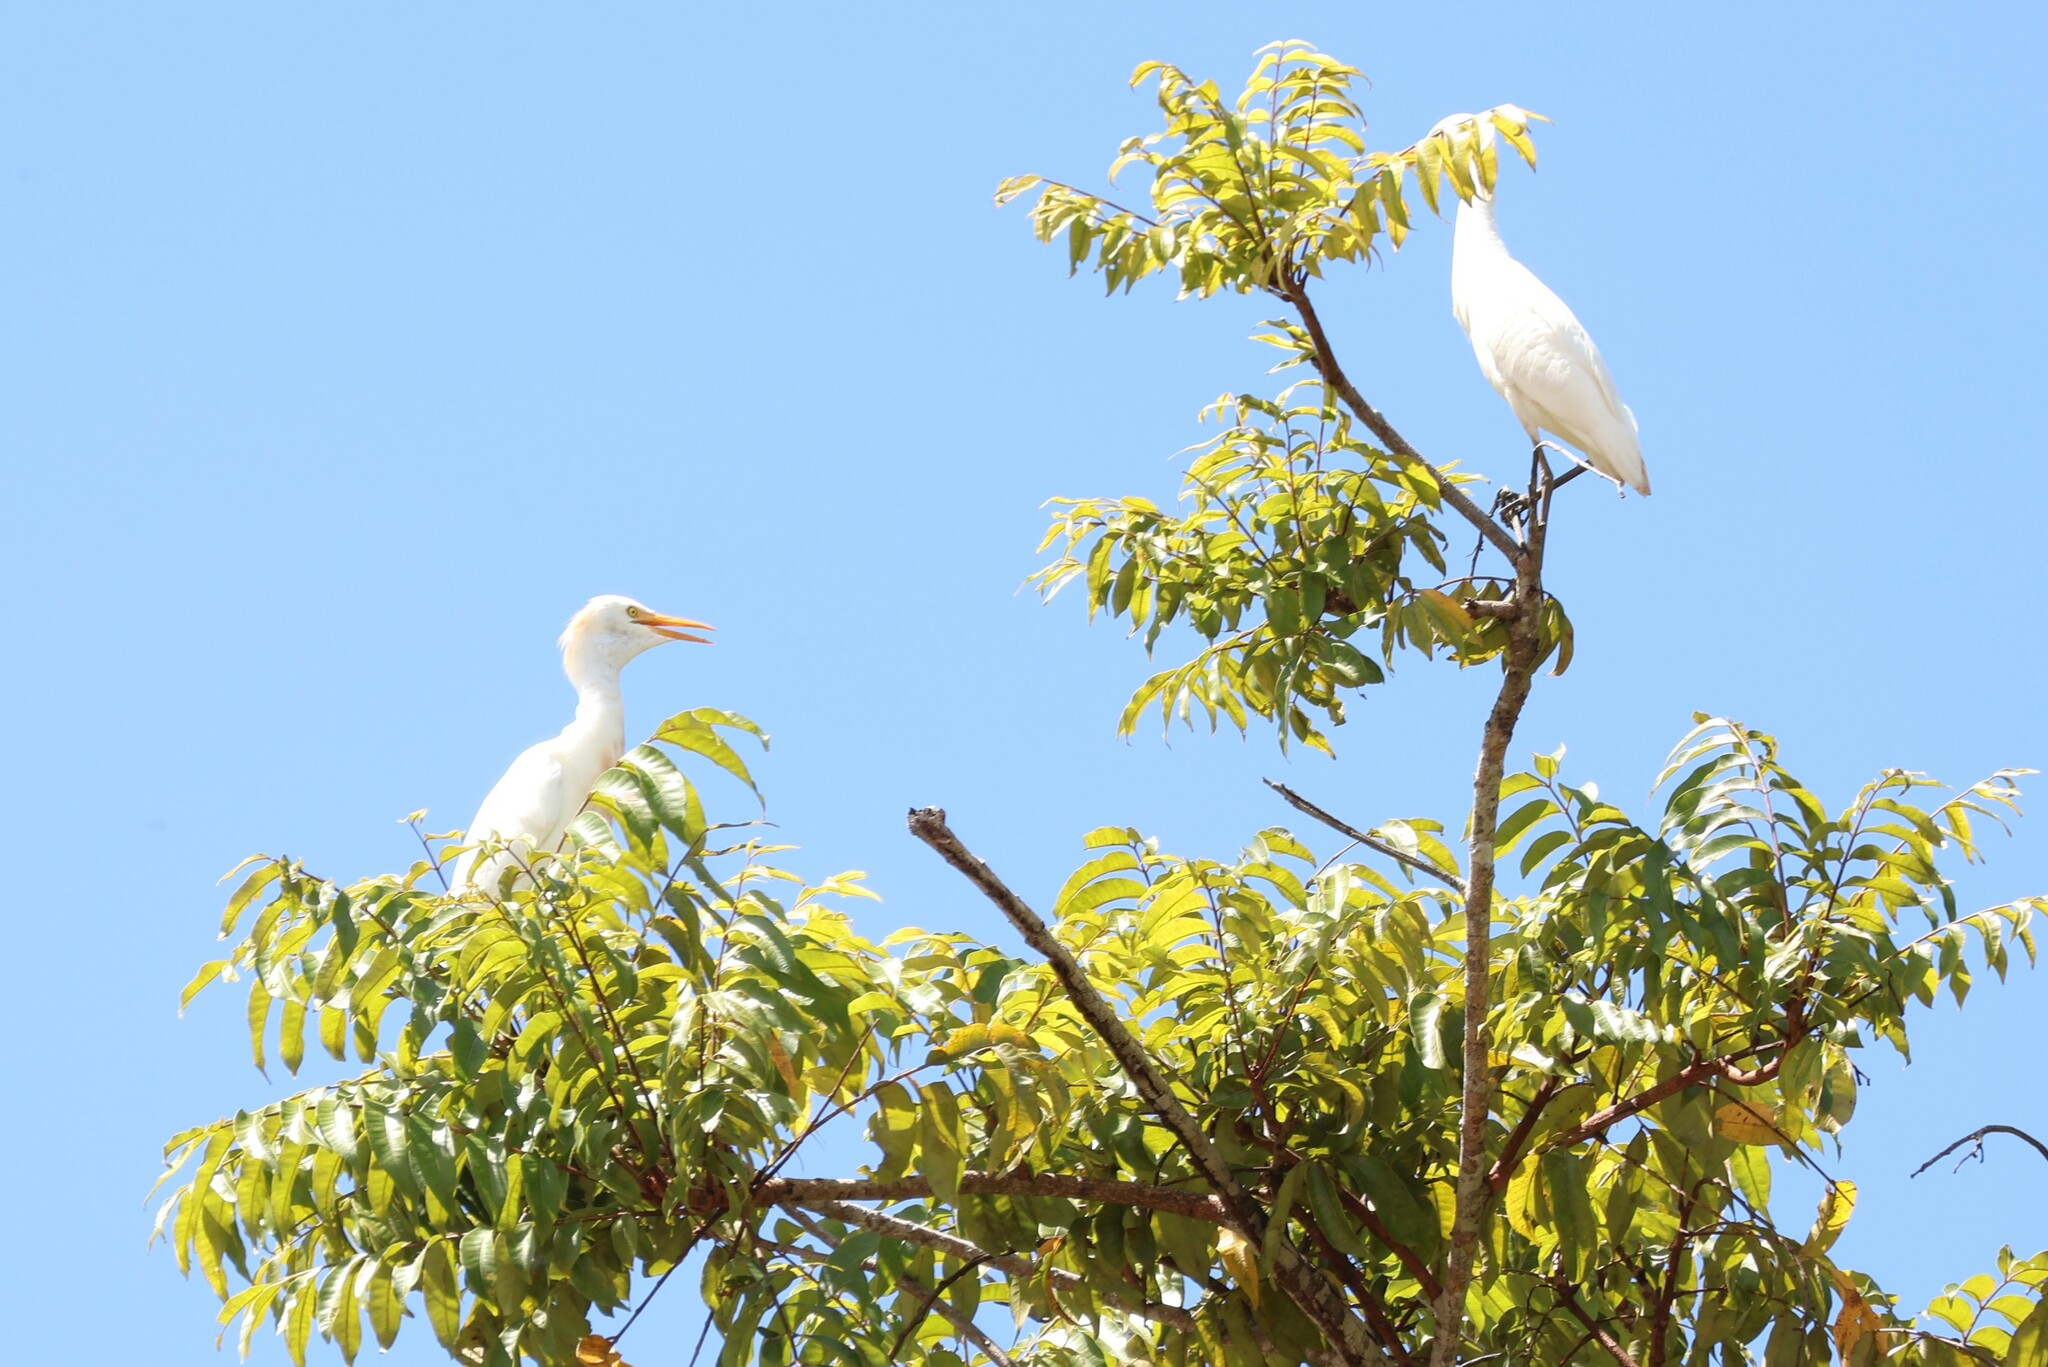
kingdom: Animalia
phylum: Chordata
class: Aves
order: Pelecaniformes
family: Ardeidae
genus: Bubulcus
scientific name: Bubulcus ibis
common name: Cattle egret
